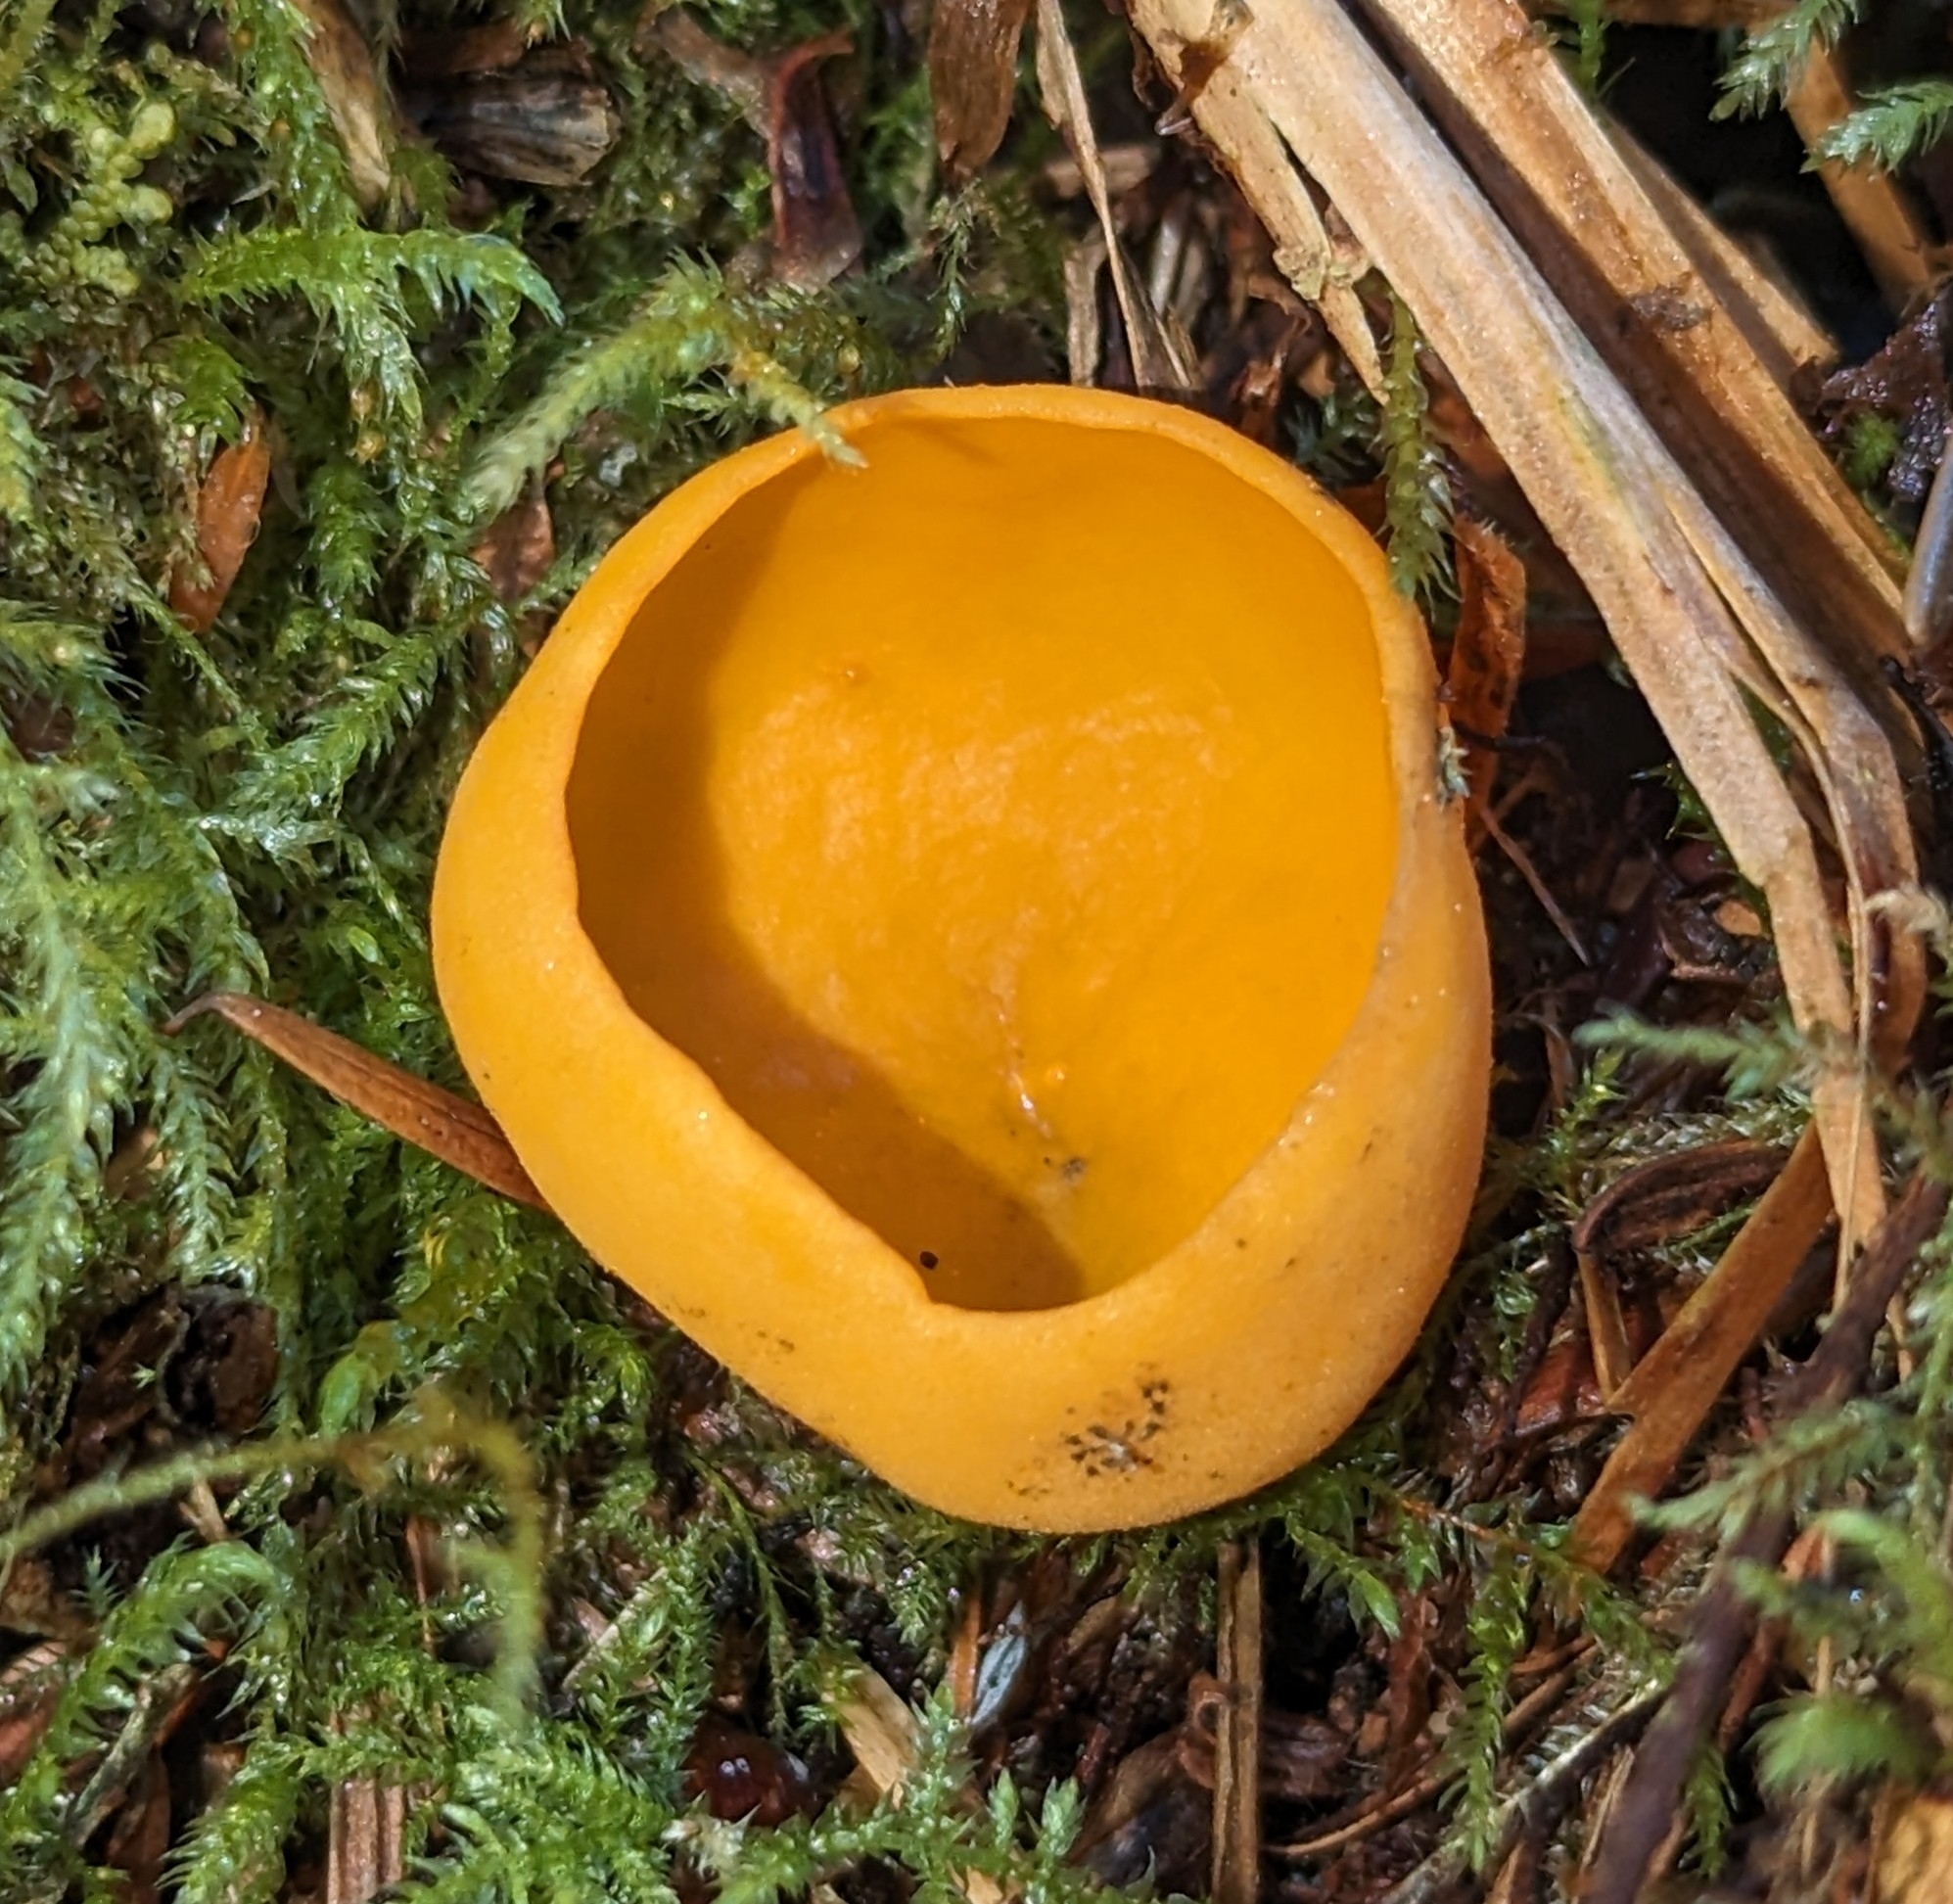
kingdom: Fungi
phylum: Ascomycota
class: Pezizomycetes
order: Pezizales
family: Caloscyphaceae
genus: Caloscypha
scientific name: Caloscypha fulgens
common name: Golden cup
